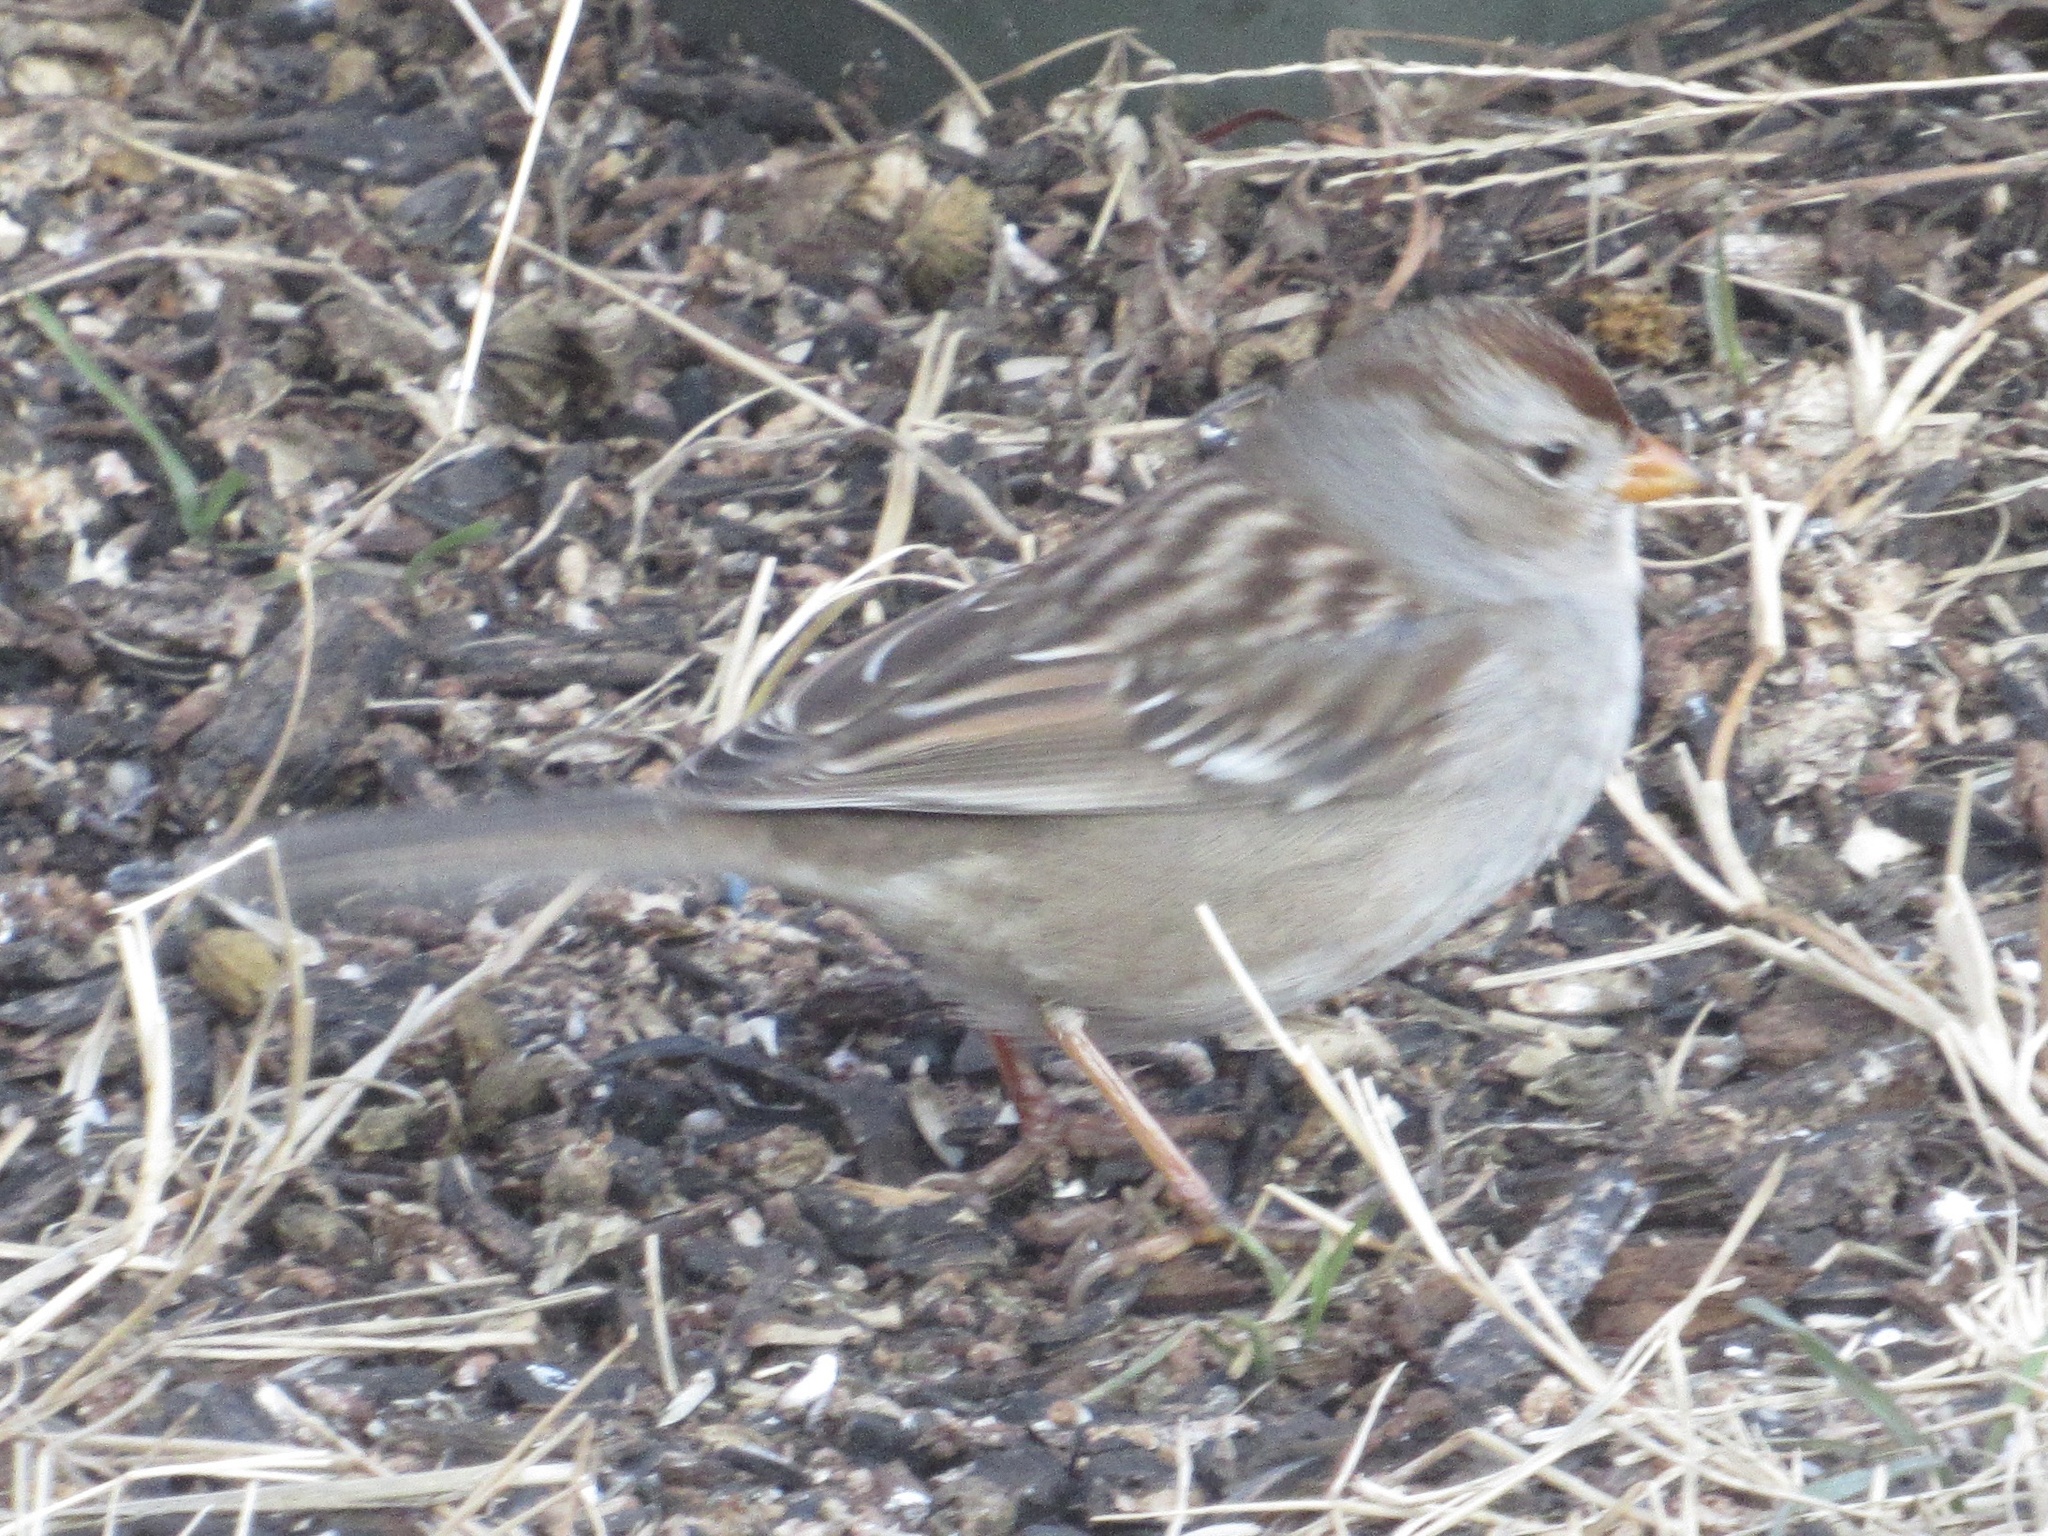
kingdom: Animalia
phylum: Chordata
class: Aves
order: Passeriformes
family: Passerellidae
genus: Zonotrichia
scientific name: Zonotrichia leucophrys
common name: White-crowned sparrow
